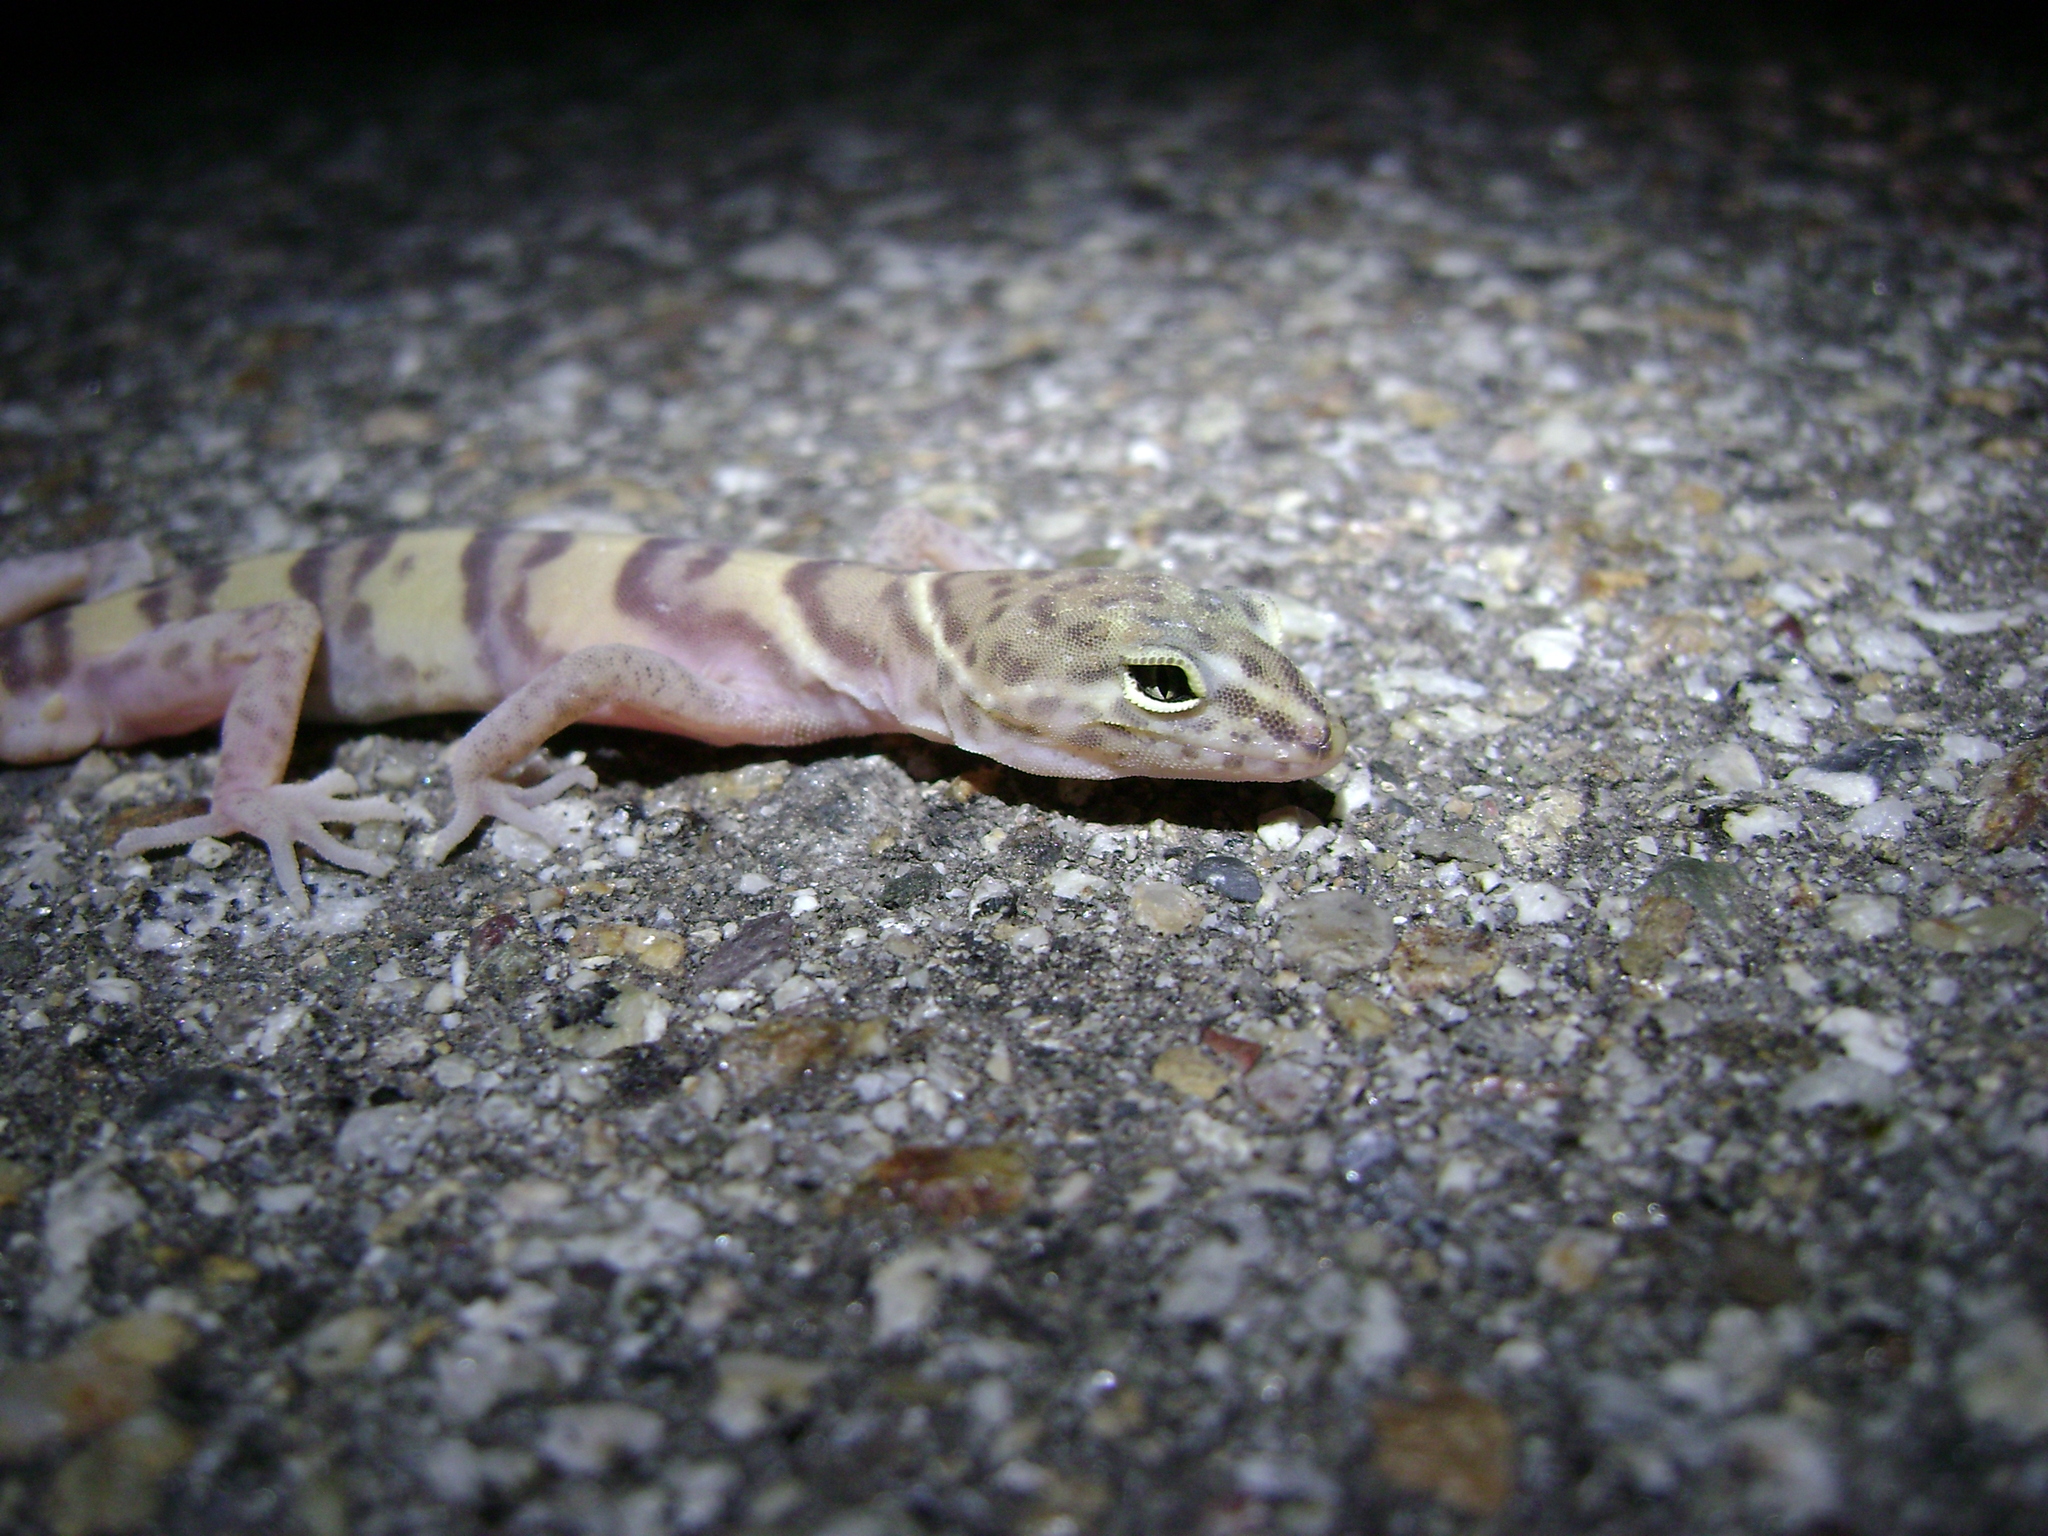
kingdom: Animalia
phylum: Chordata
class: Squamata
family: Eublepharidae
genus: Coleonyx
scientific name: Coleonyx variegatus
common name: Western banded gecko
